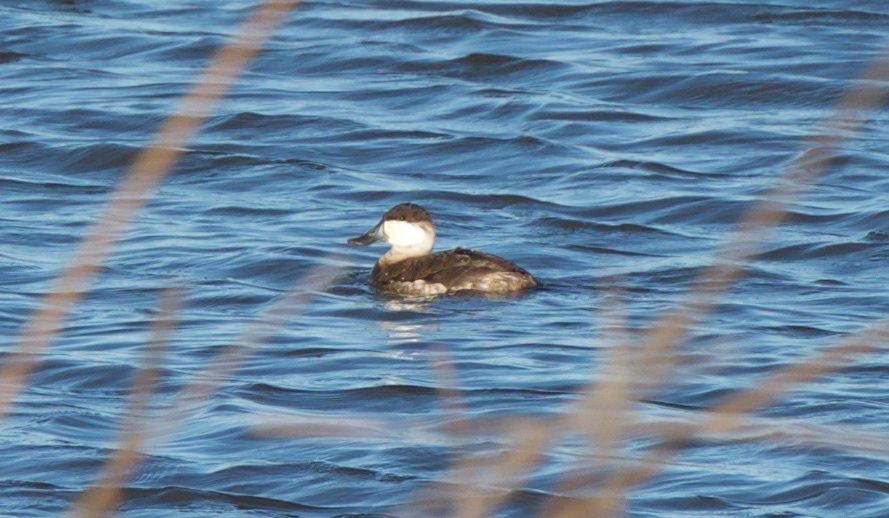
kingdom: Animalia
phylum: Chordata
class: Aves
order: Anseriformes
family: Anatidae
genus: Oxyura
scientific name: Oxyura jamaicensis
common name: Ruddy duck
